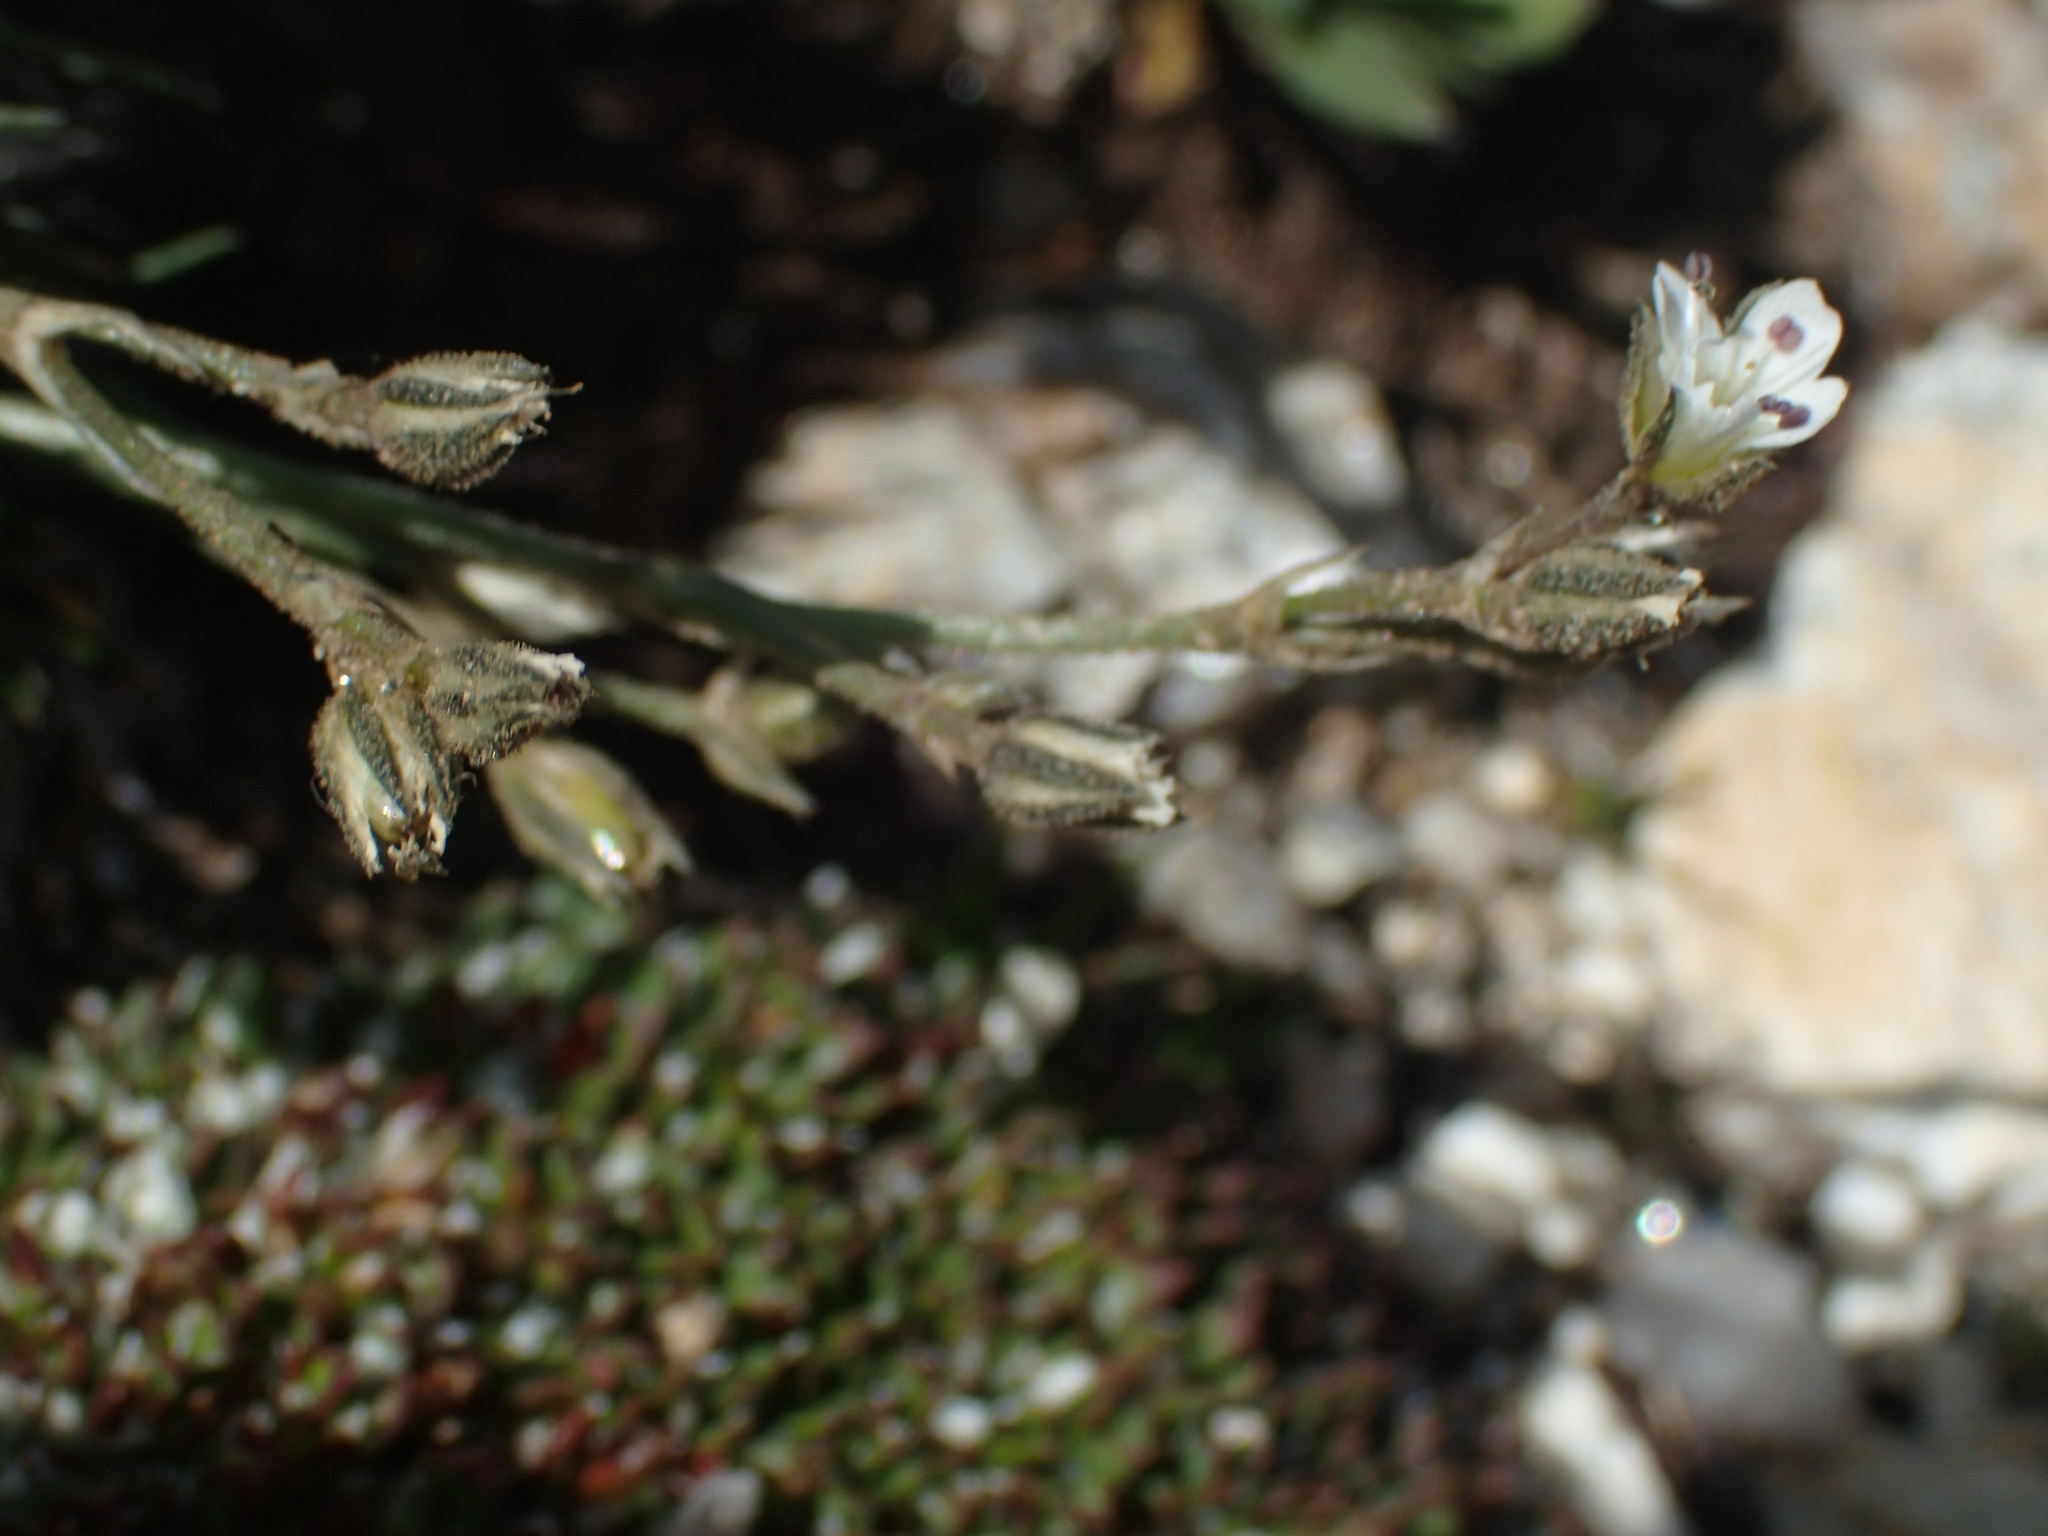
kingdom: Plantae
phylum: Tracheophyta
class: Magnoliopsida
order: Caryophyllales
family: Caryophyllaceae
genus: Eremogone
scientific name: Eremogone fendleri
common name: Fendler's sandwort
